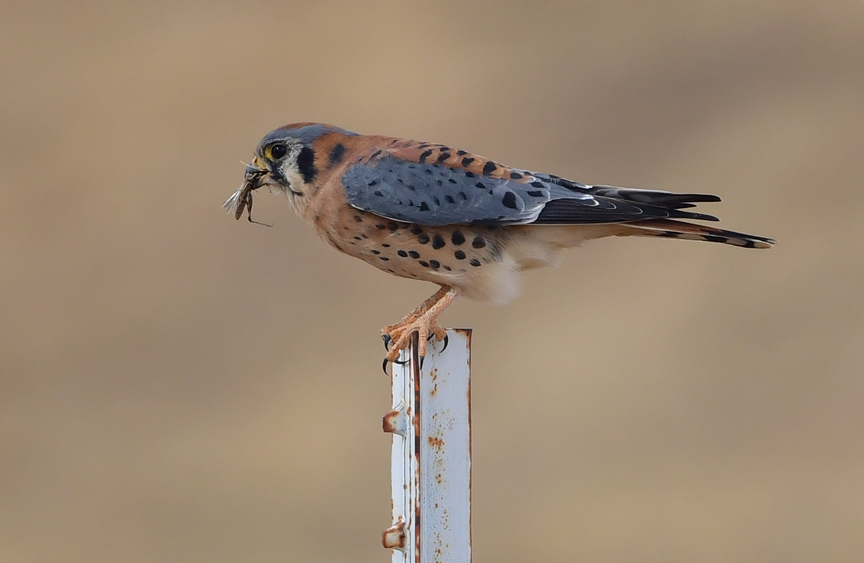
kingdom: Animalia
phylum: Chordata
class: Aves
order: Falconiformes
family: Falconidae
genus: Falco
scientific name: Falco sparverius
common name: American kestrel
